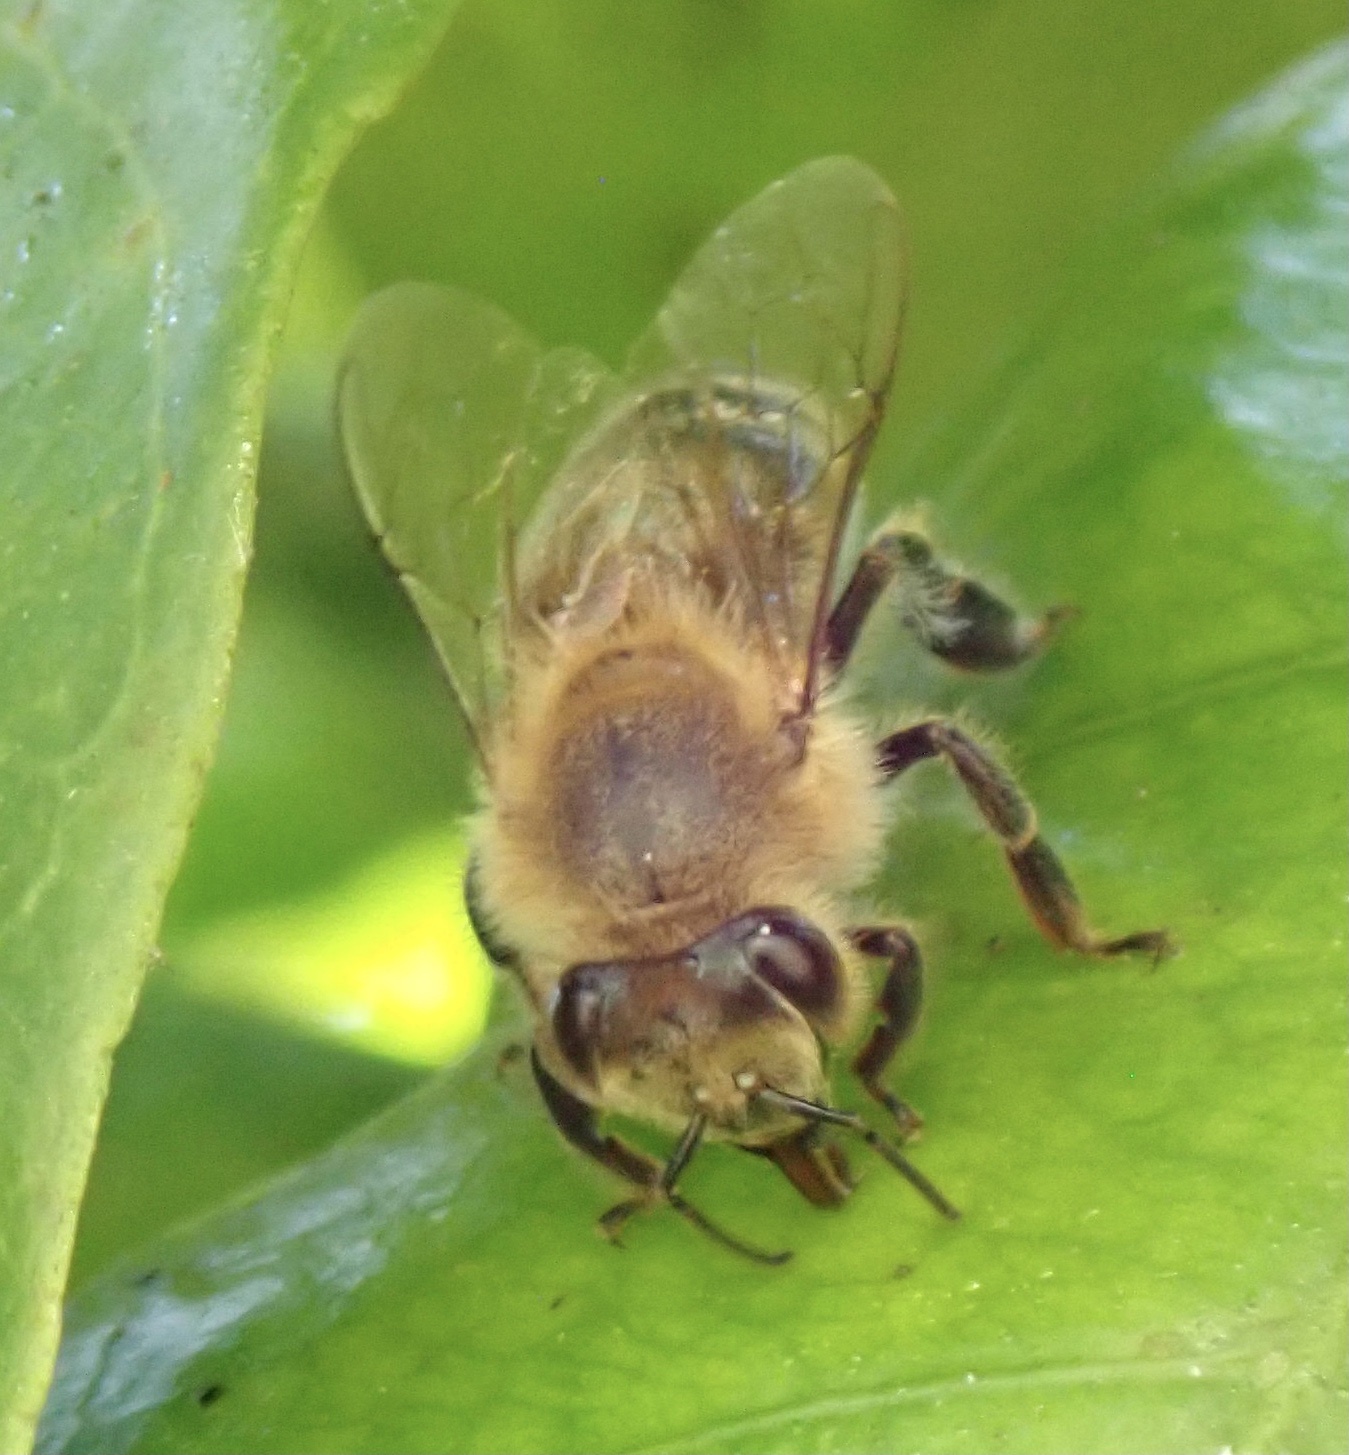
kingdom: Animalia
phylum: Arthropoda
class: Insecta
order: Hymenoptera
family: Apidae
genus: Apis
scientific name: Apis mellifera
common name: Honey bee
